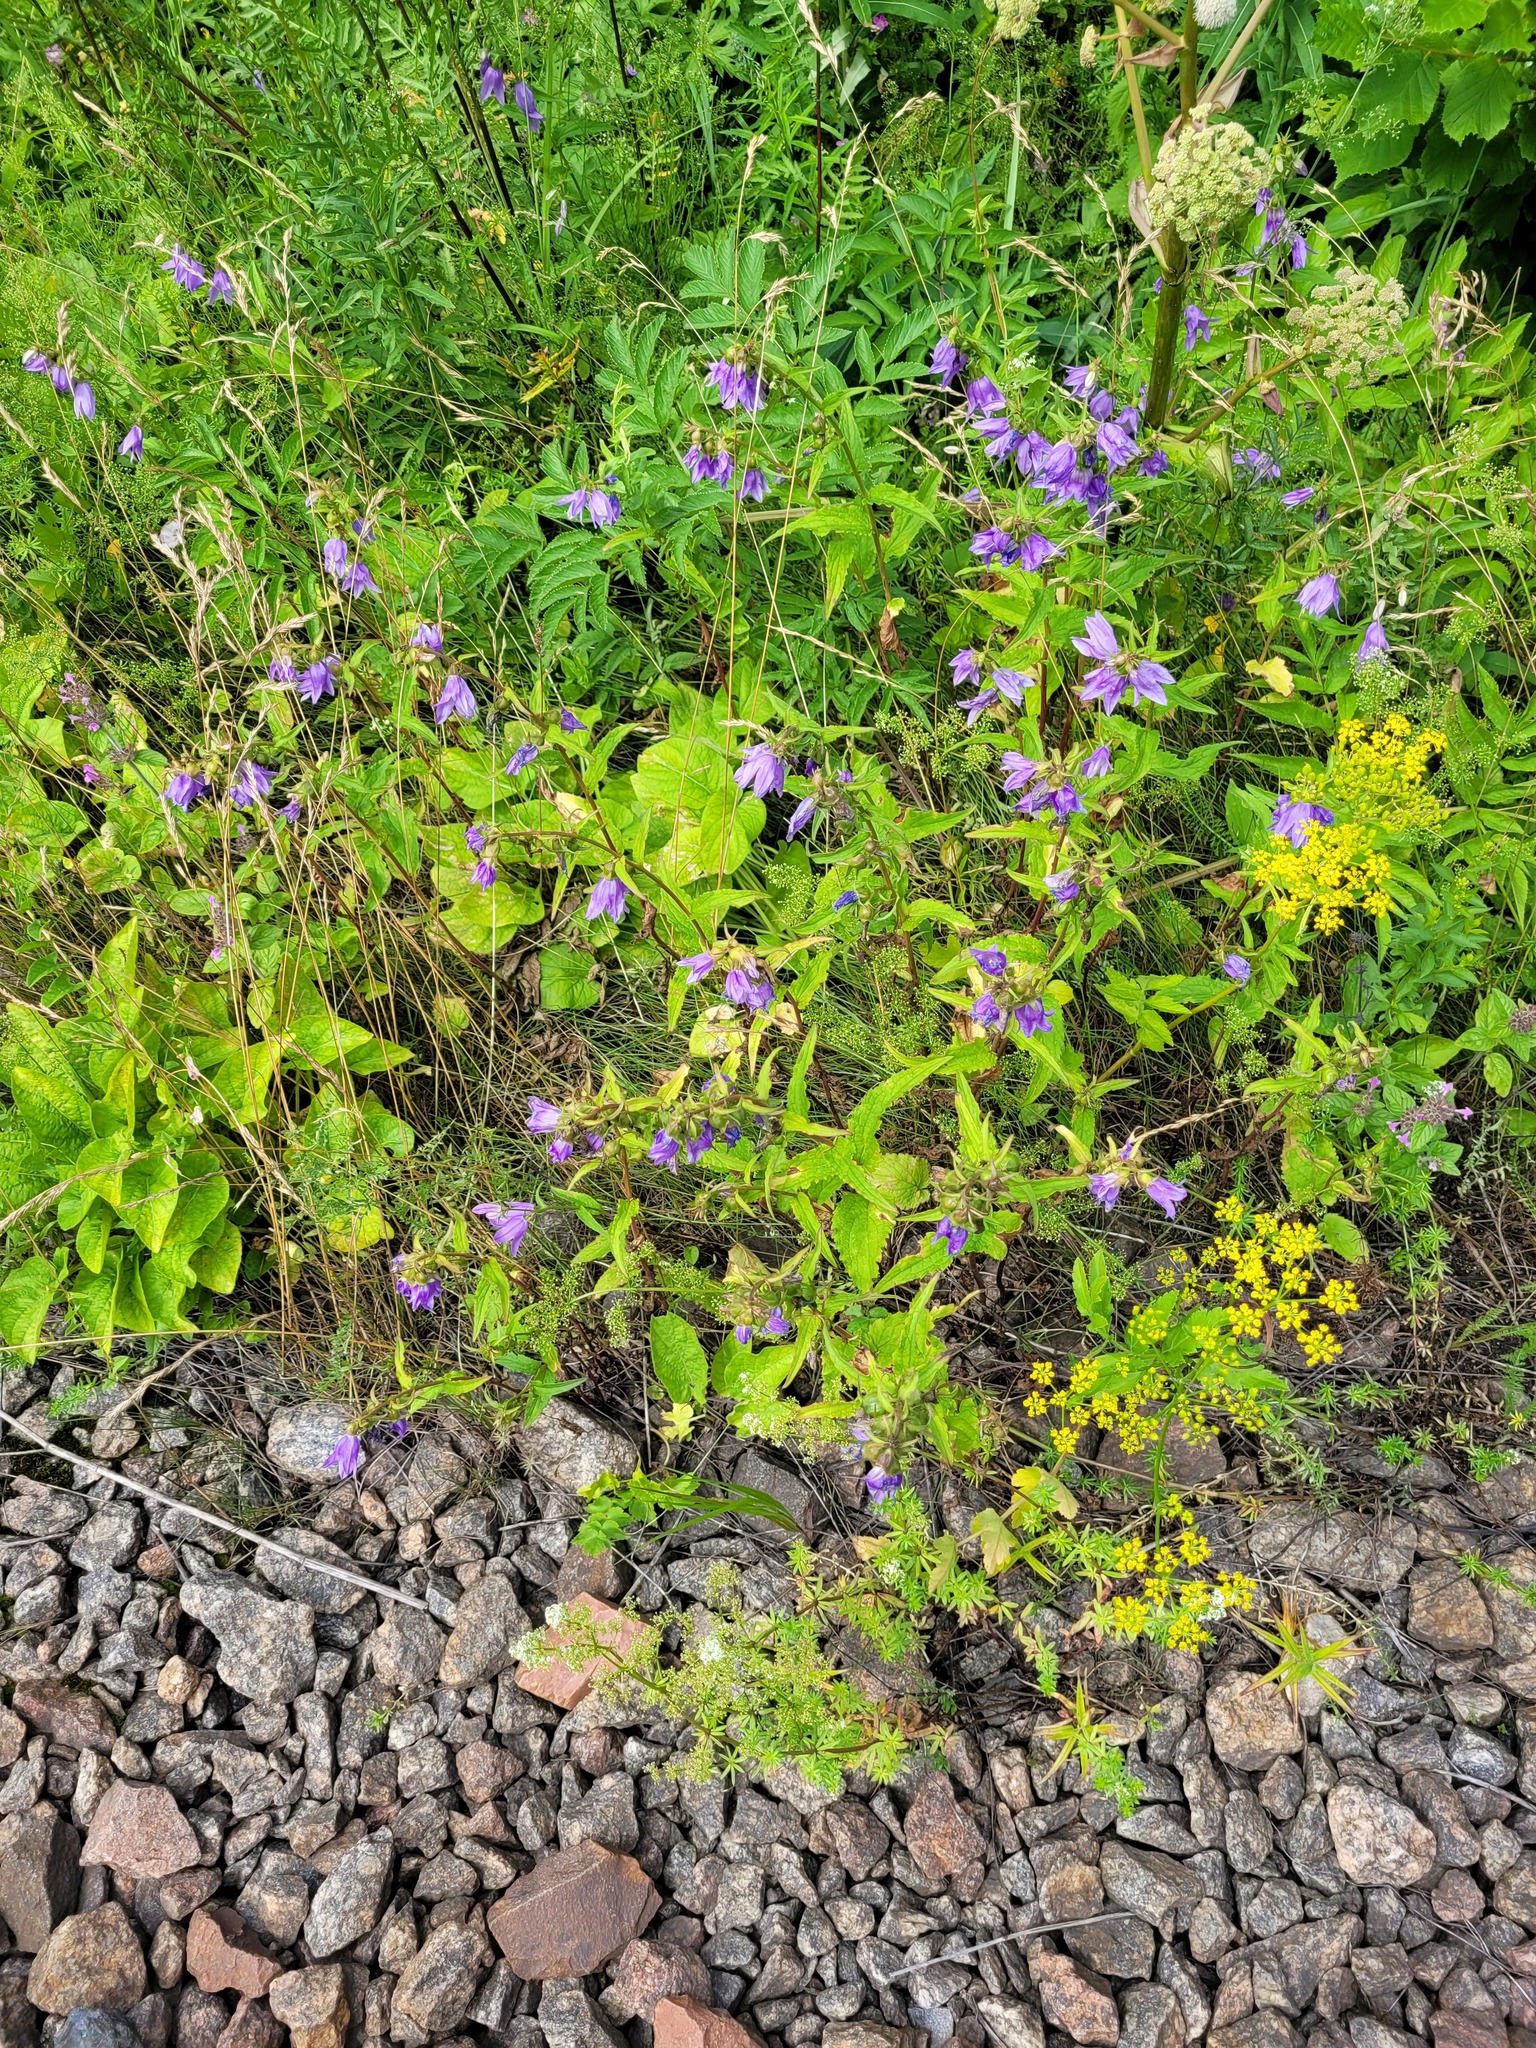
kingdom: Plantae
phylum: Tracheophyta
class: Magnoliopsida
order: Asterales
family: Campanulaceae
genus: Campanula
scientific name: Campanula rapunculoides
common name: Creeping bellflower
